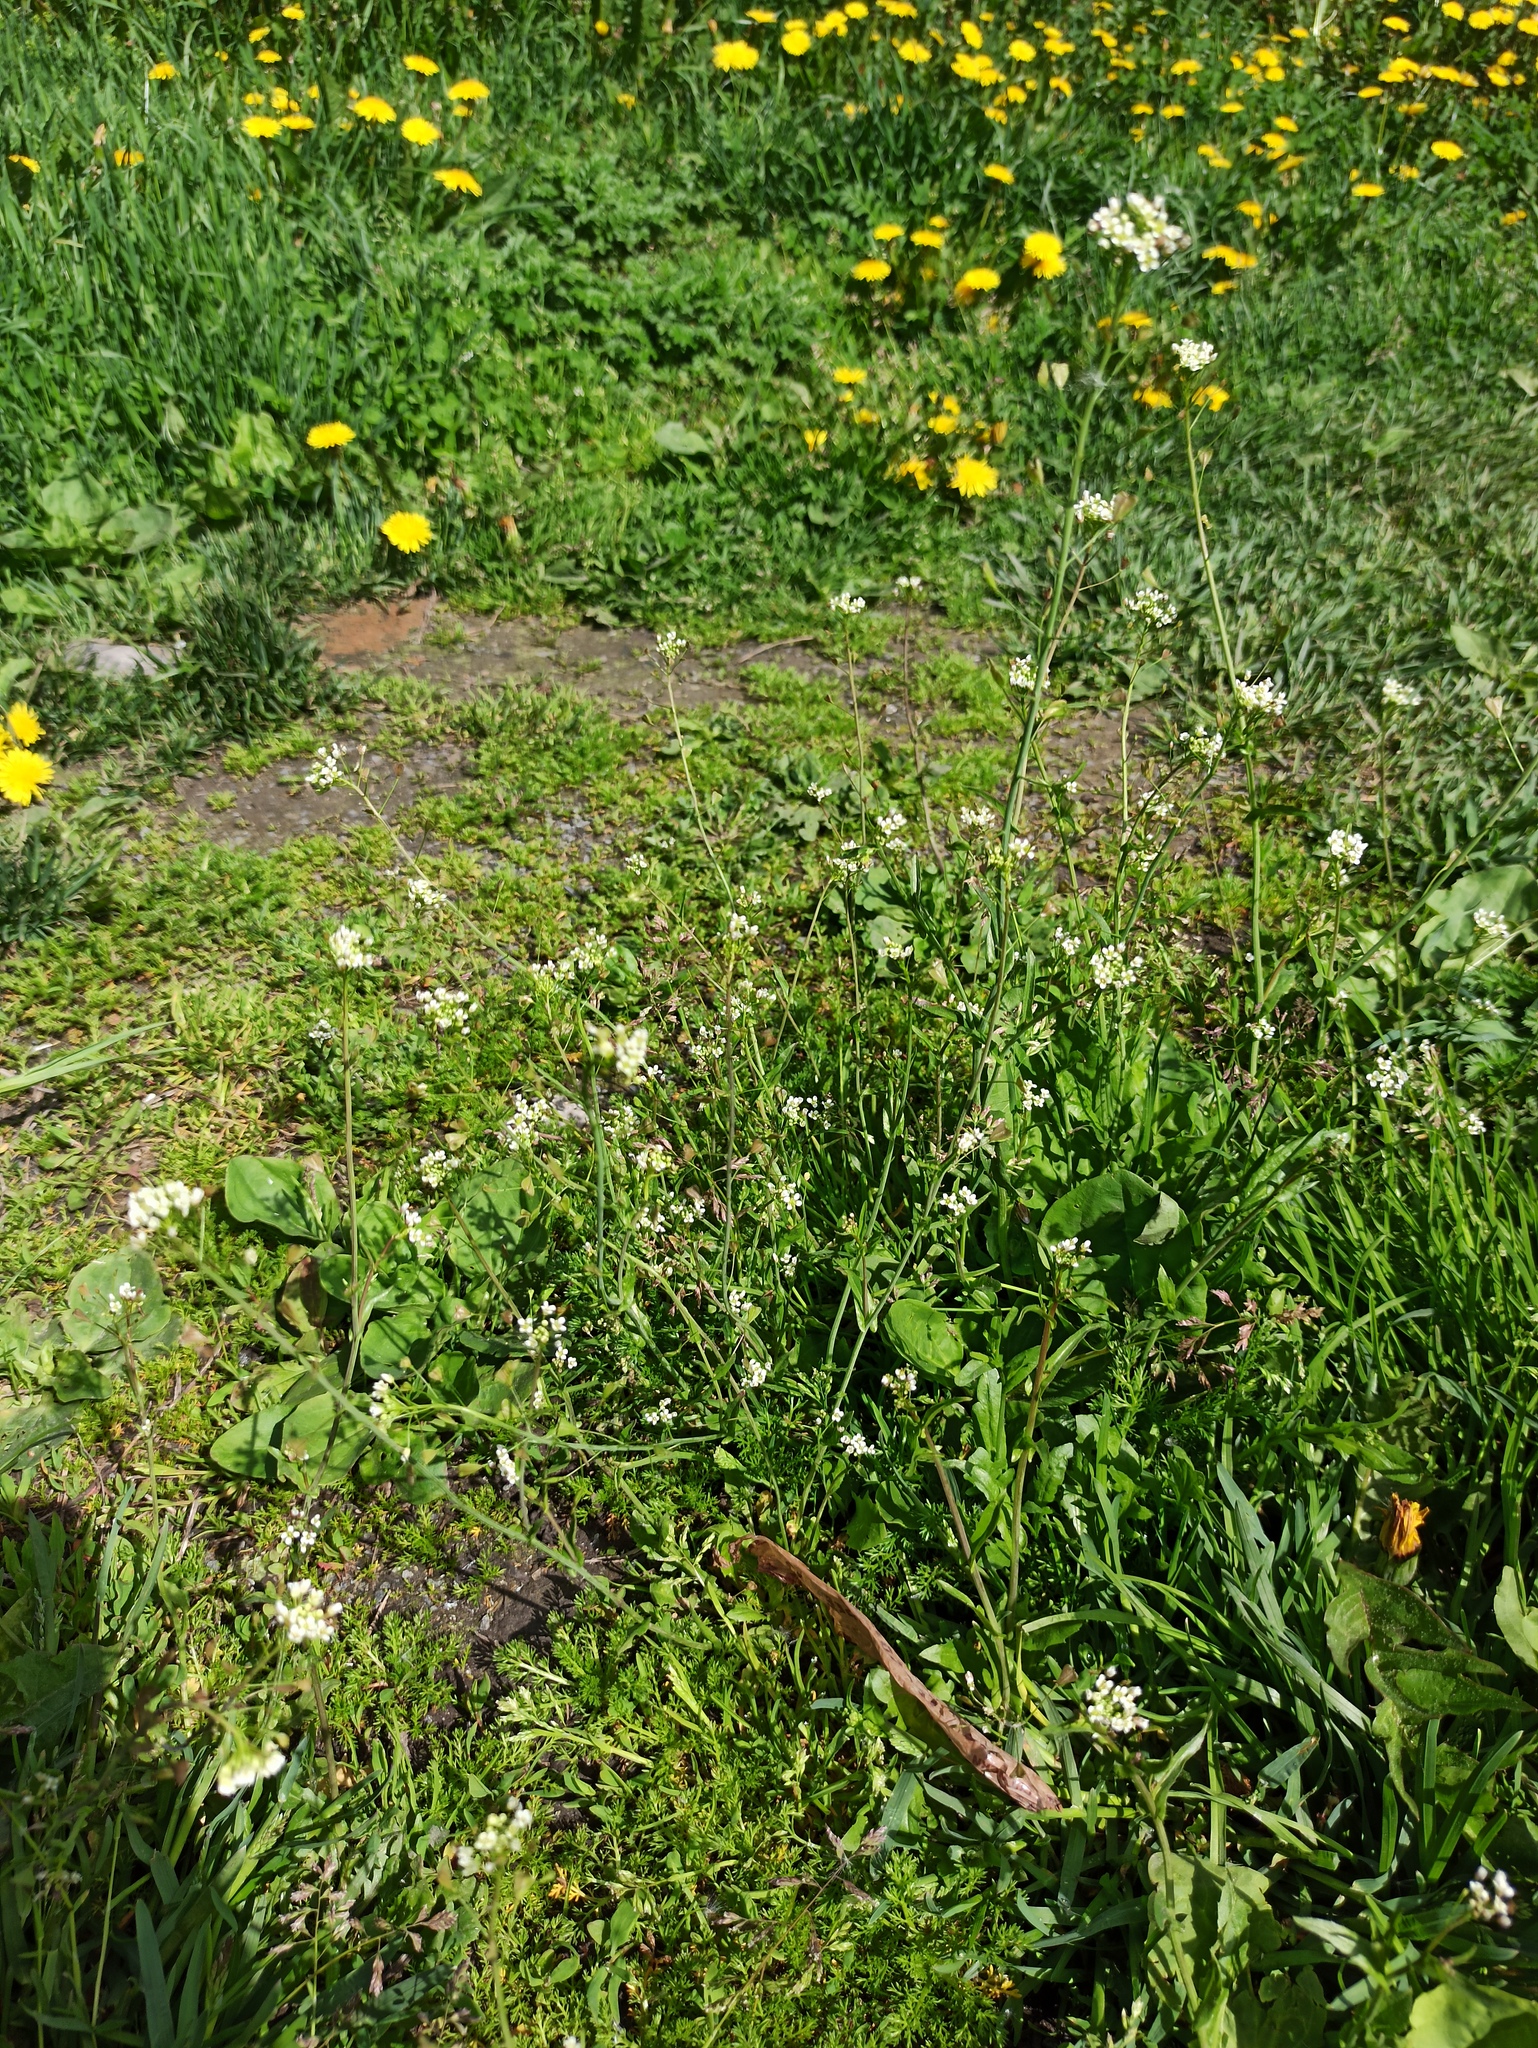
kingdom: Plantae
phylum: Tracheophyta
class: Magnoliopsida
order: Brassicales
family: Brassicaceae
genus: Capsella
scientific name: Capsella bursa-pastoris
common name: Shepherd's purse
